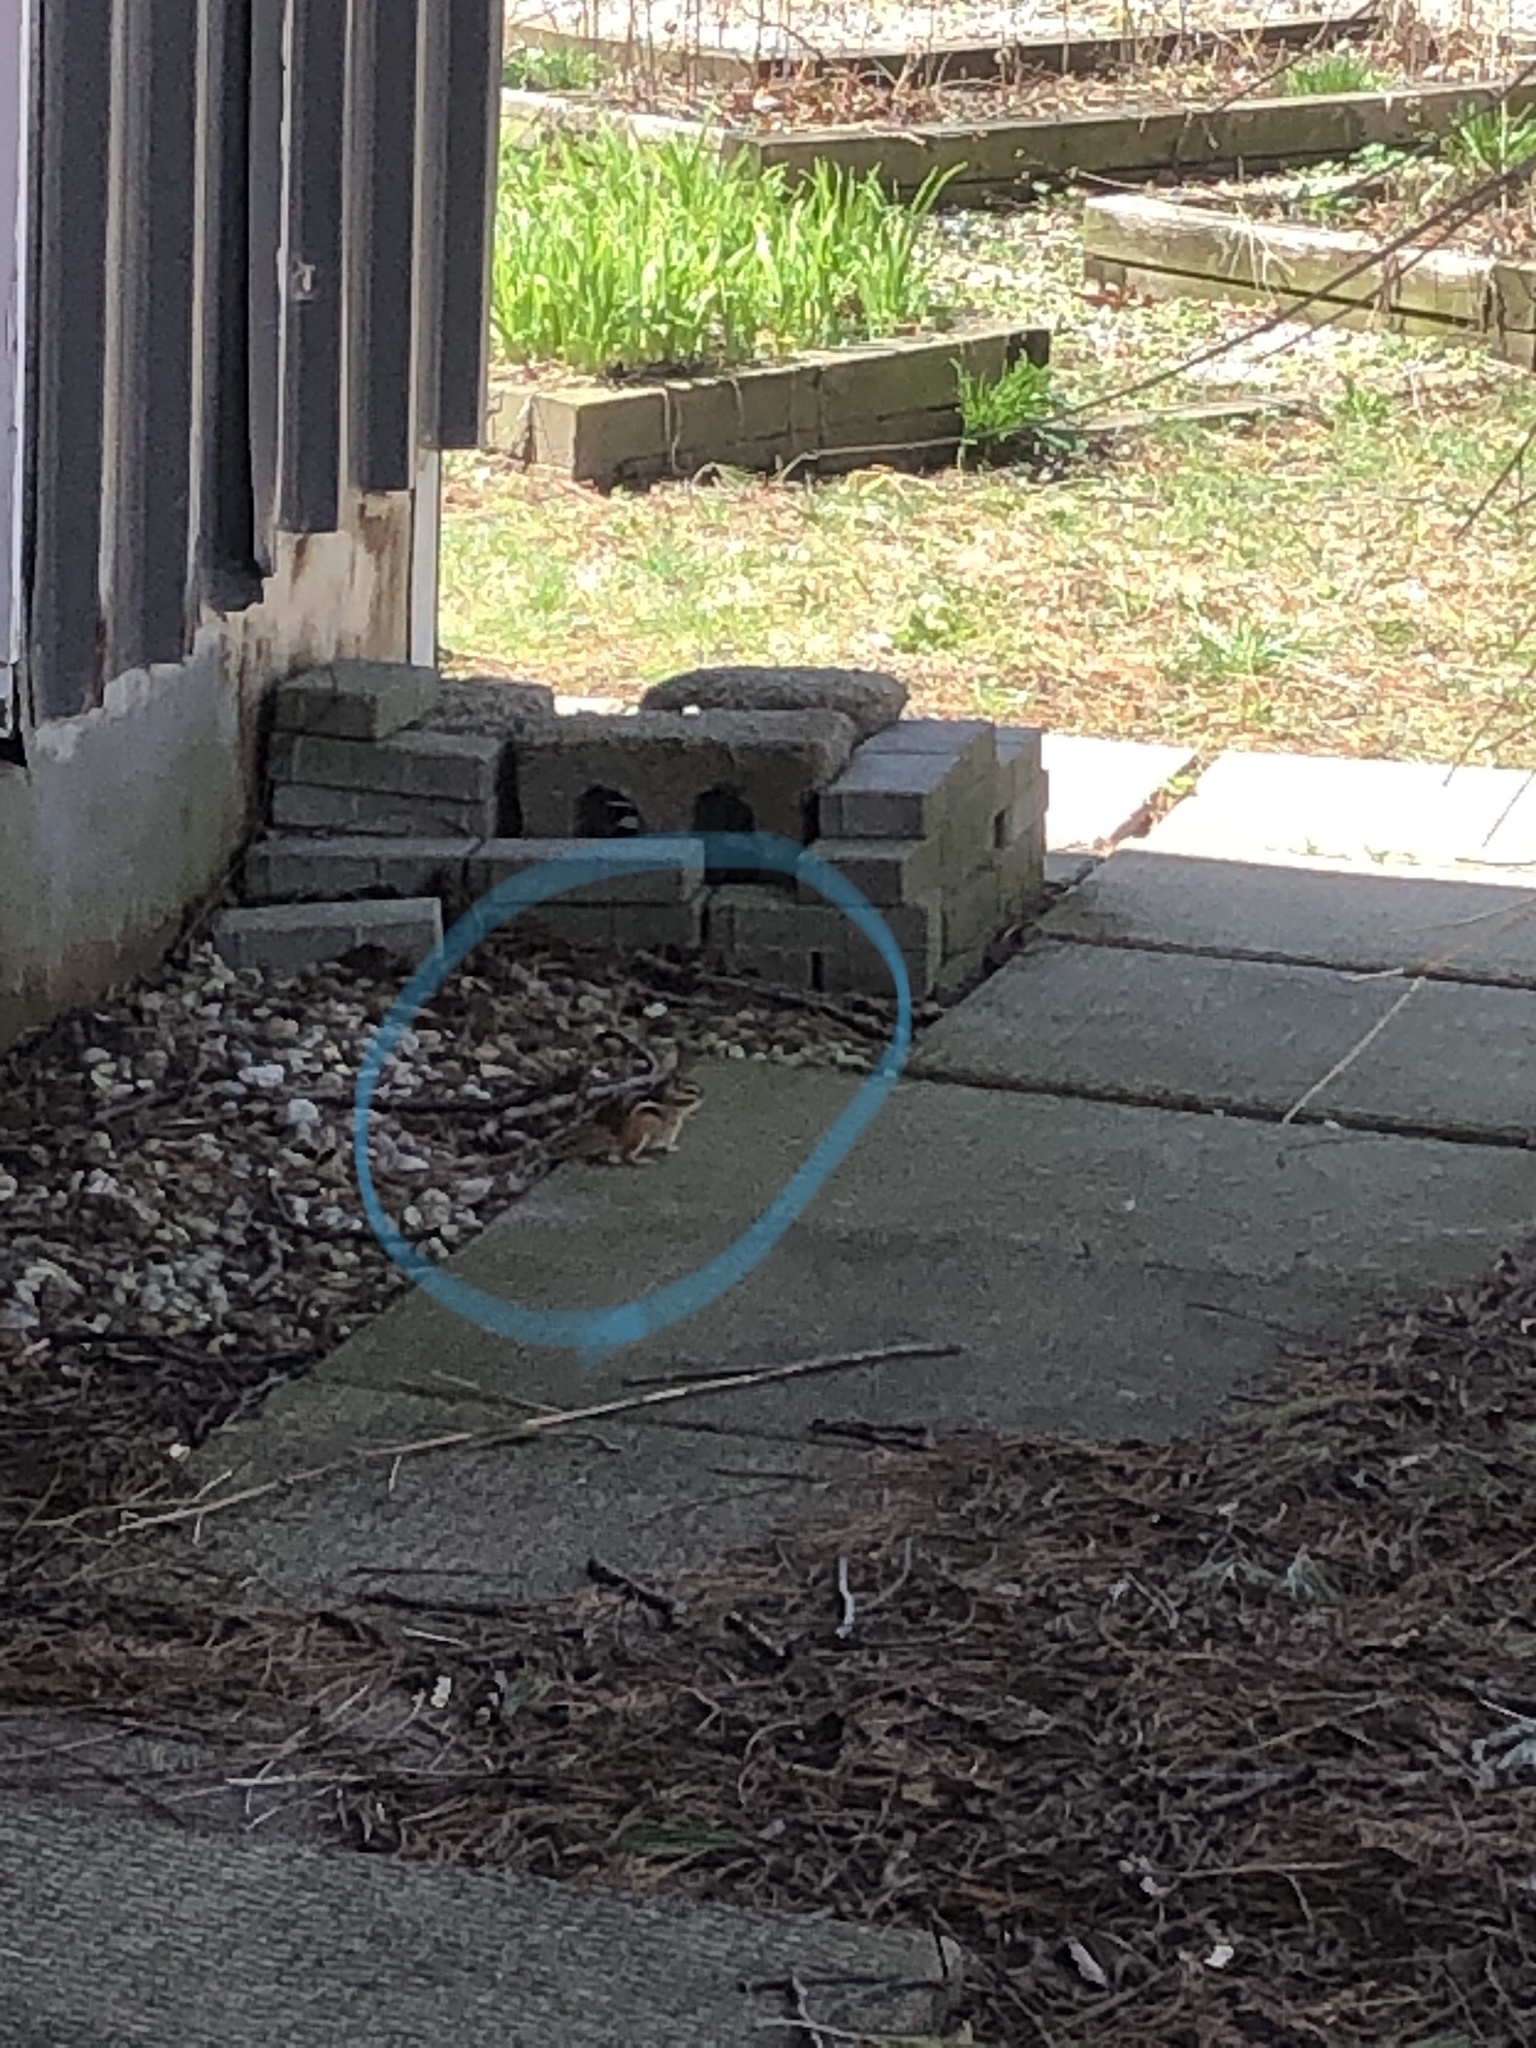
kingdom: Animalia
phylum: Chordata
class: Mammalia
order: Rodentia
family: Sciuridae
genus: Tamias
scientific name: Tamias striatus
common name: Eastern chipmunk
